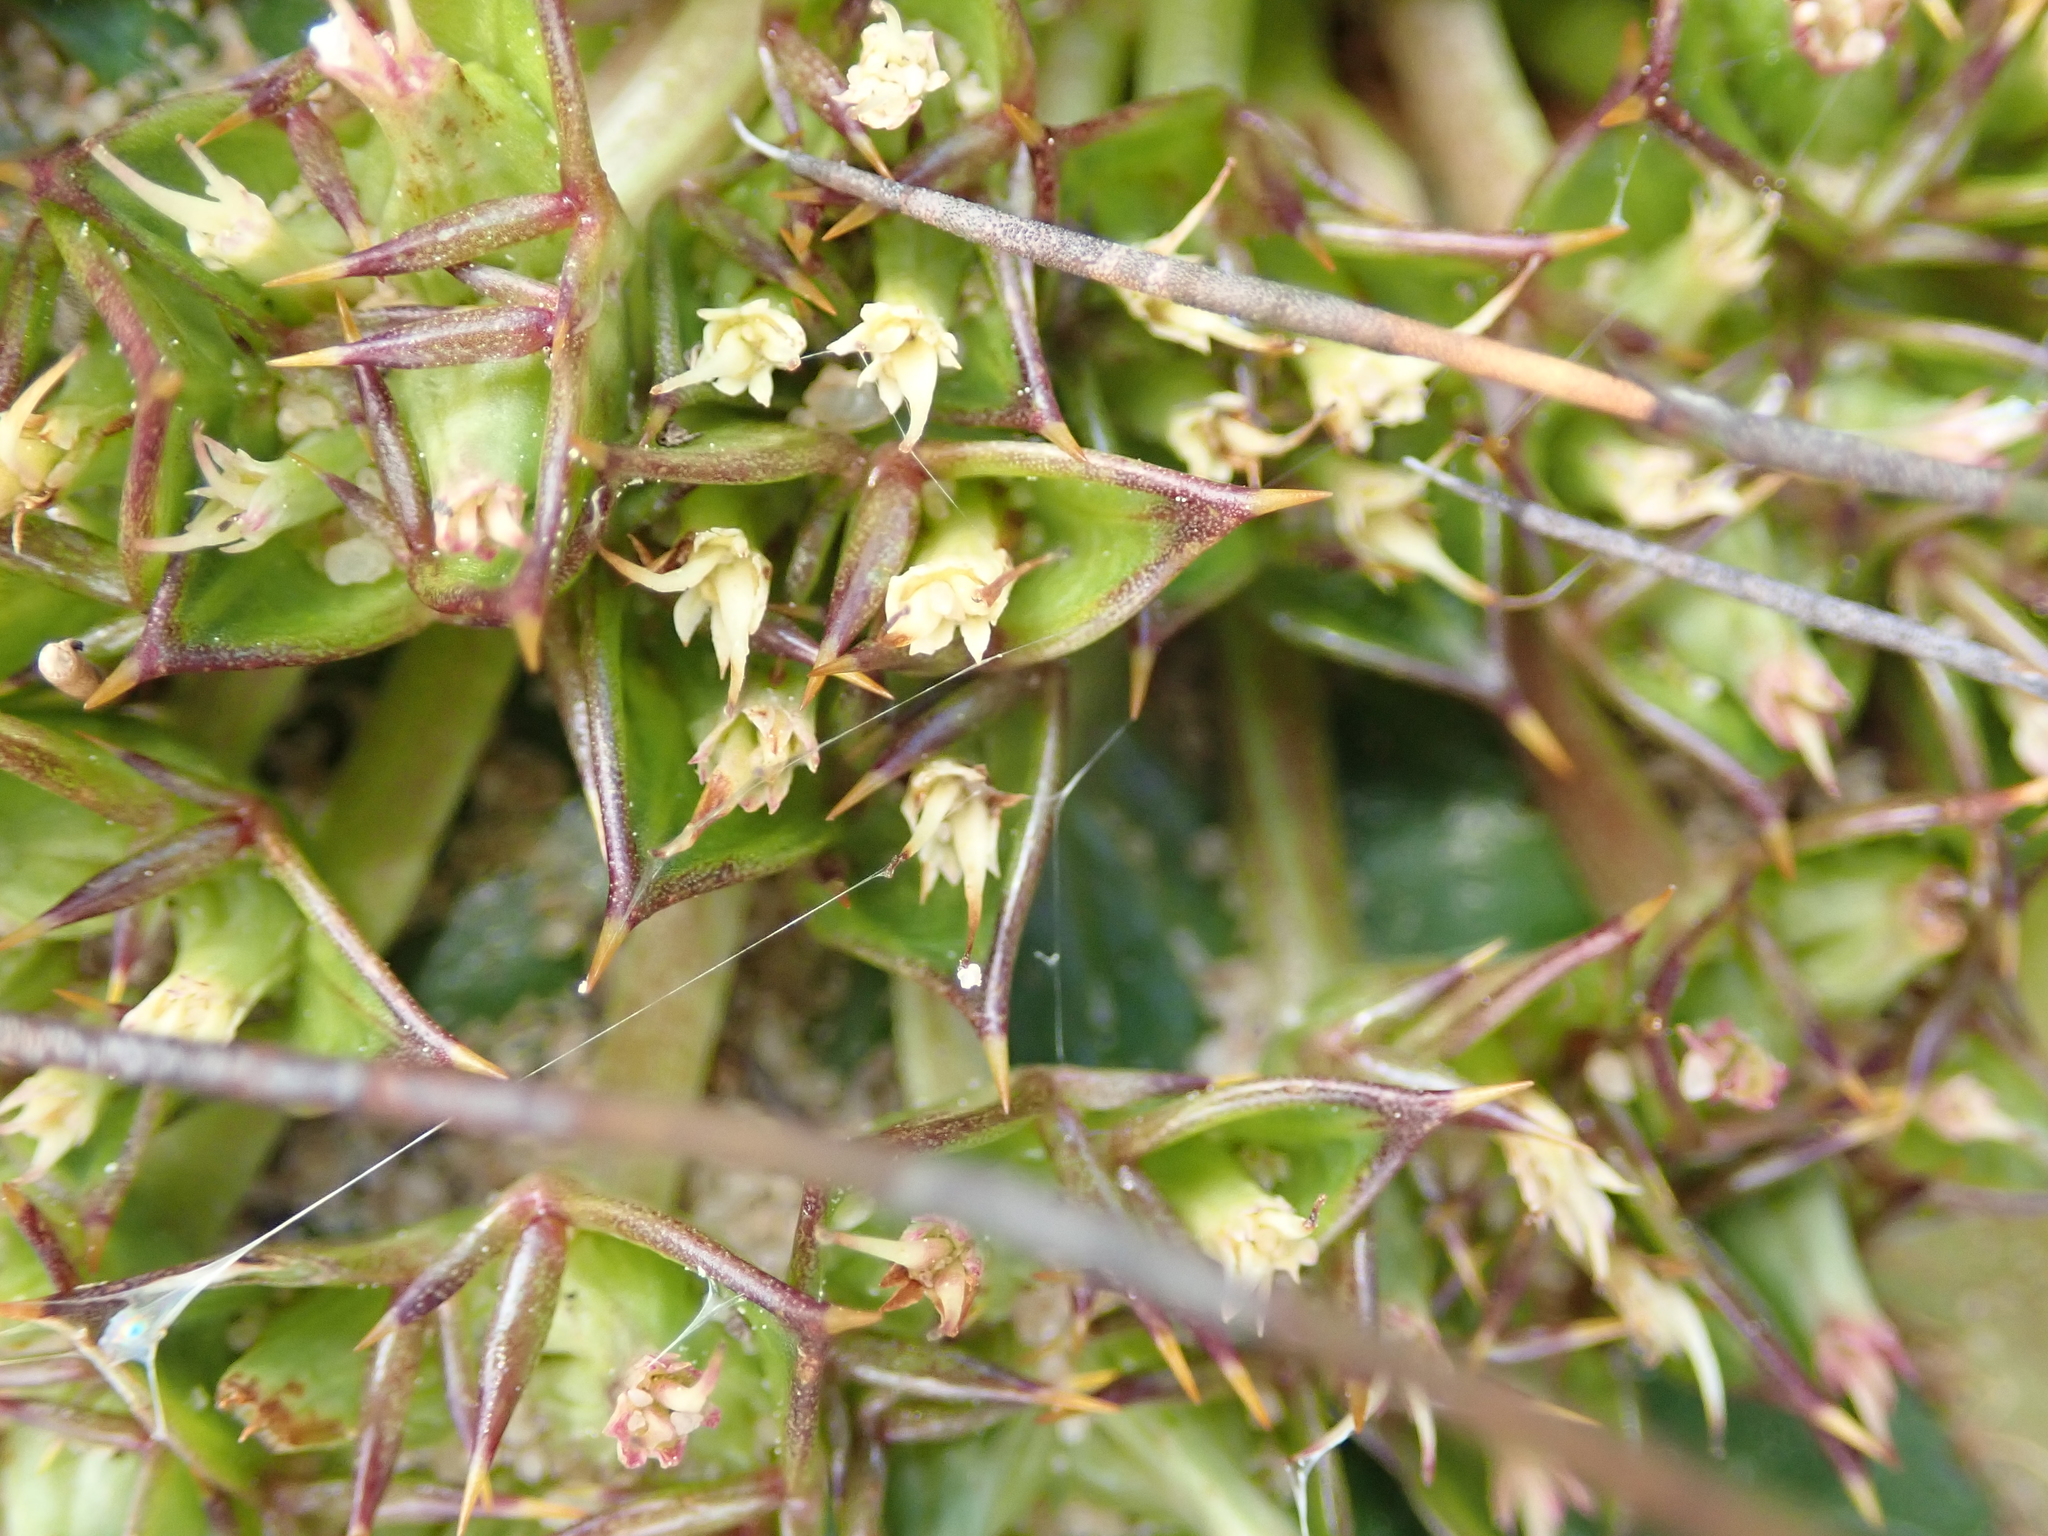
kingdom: Plantae
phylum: Tracheophyta
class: Magnoliopsida
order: Apiales
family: Apiaceae
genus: Arctopus
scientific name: Arctopus echinatus
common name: Platdoring
